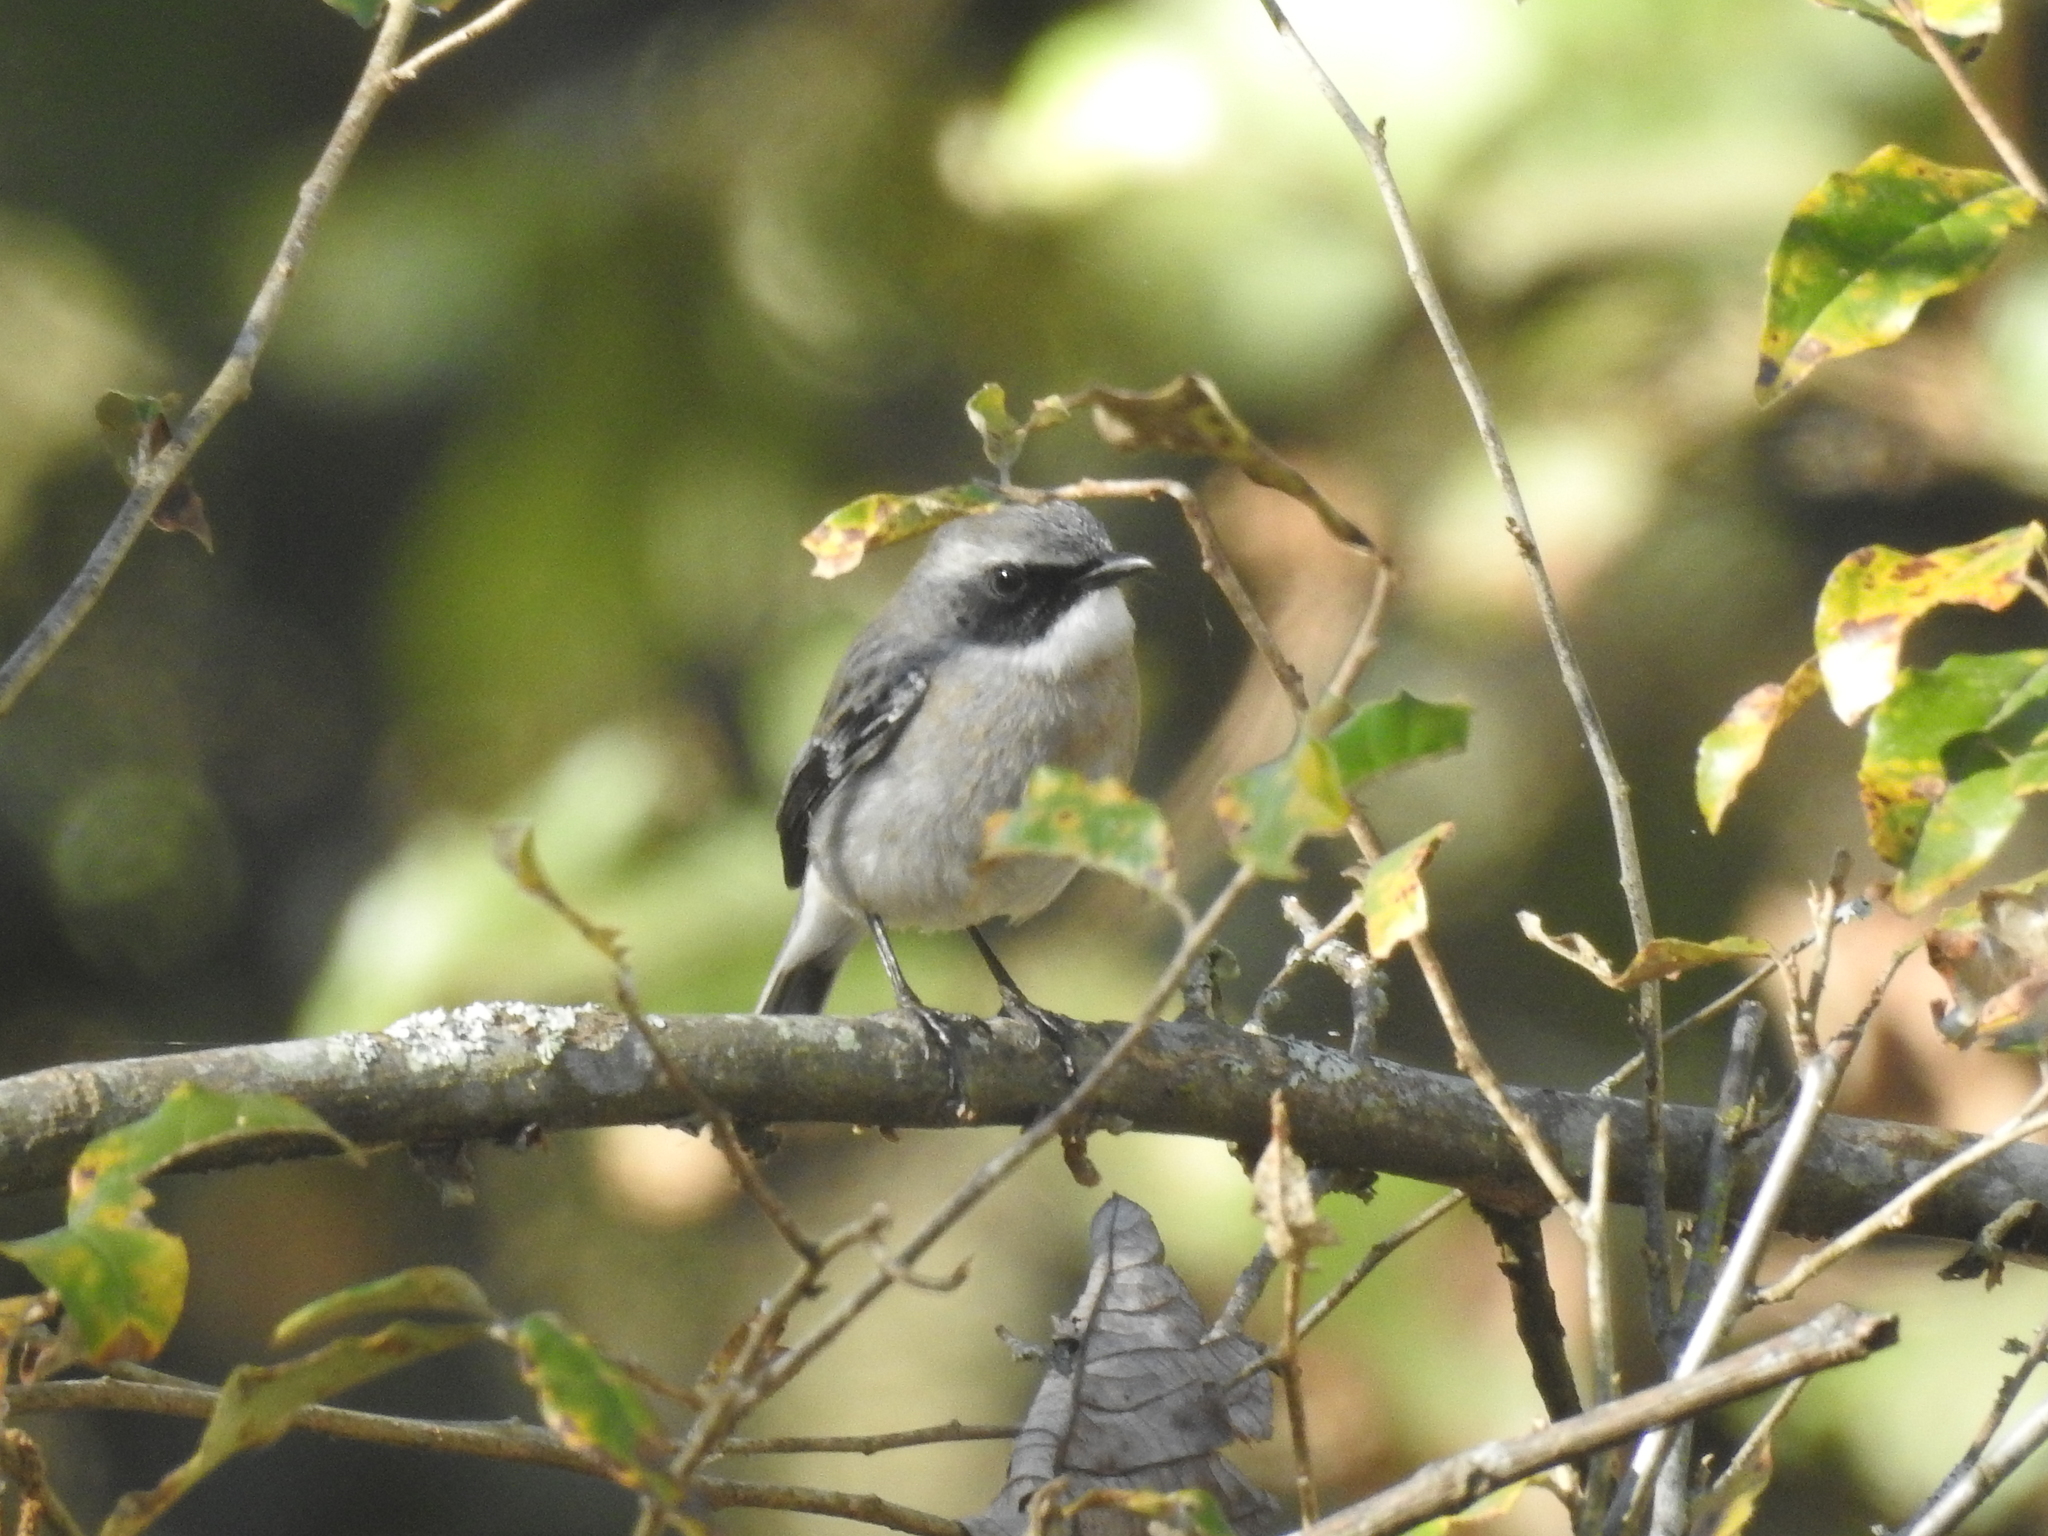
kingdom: Animalia
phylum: Chordata
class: Aves
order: Passeriformes
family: Muscicapidae
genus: Saxicola
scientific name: Saxicola ferreus
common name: Grey bush chat
